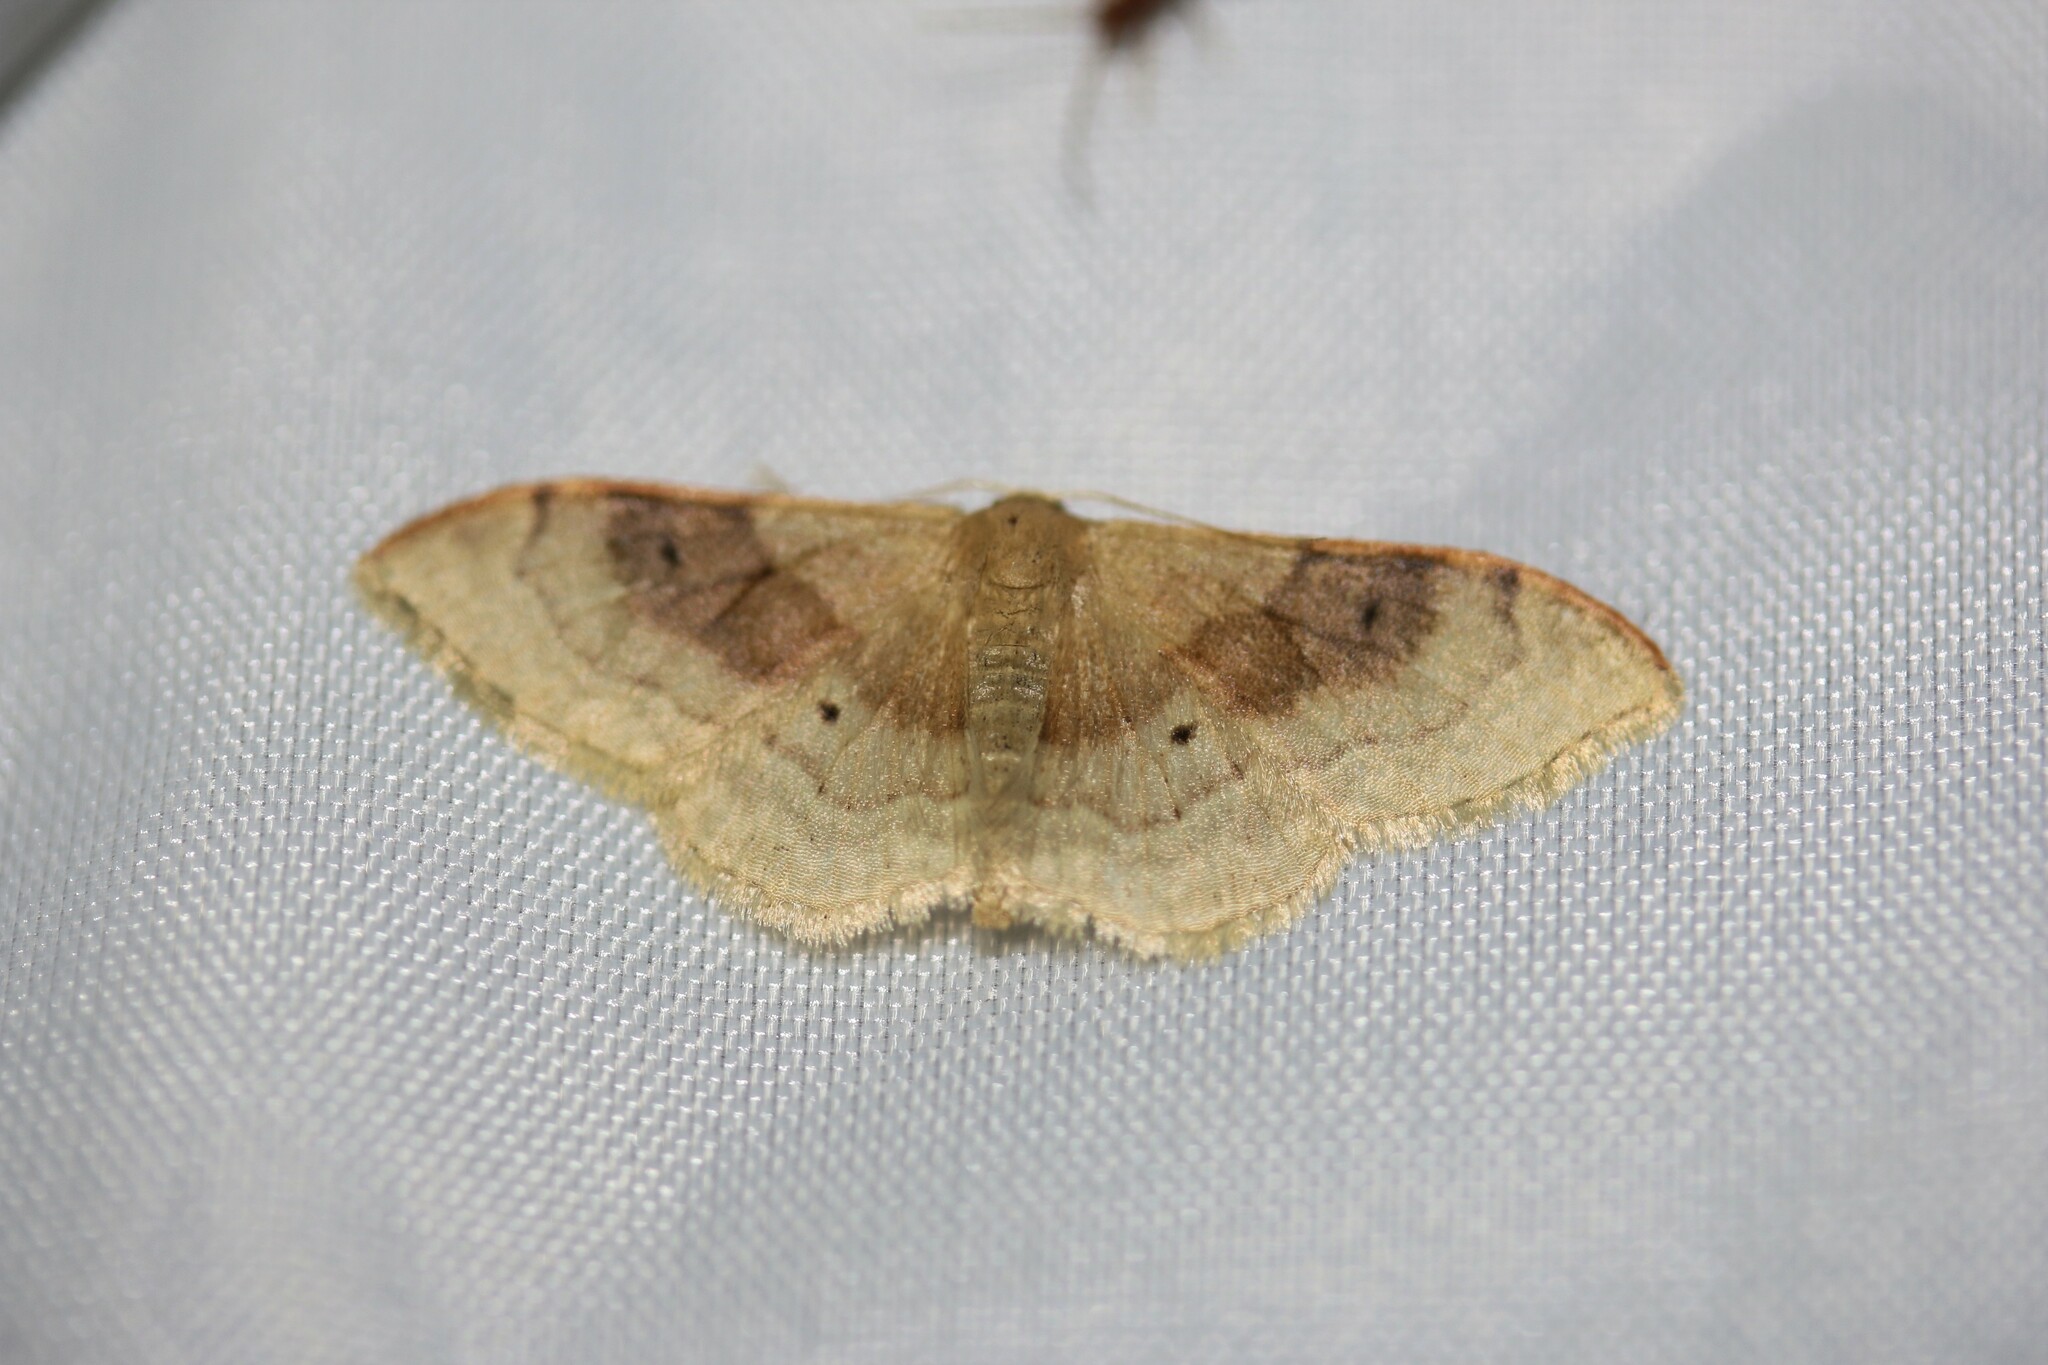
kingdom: Animalia
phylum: Arthropoda
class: Insecta
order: Lepidoptera
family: Geometridae
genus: Idaea
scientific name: Idaea degeneraria
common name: Portland ribbon wave
